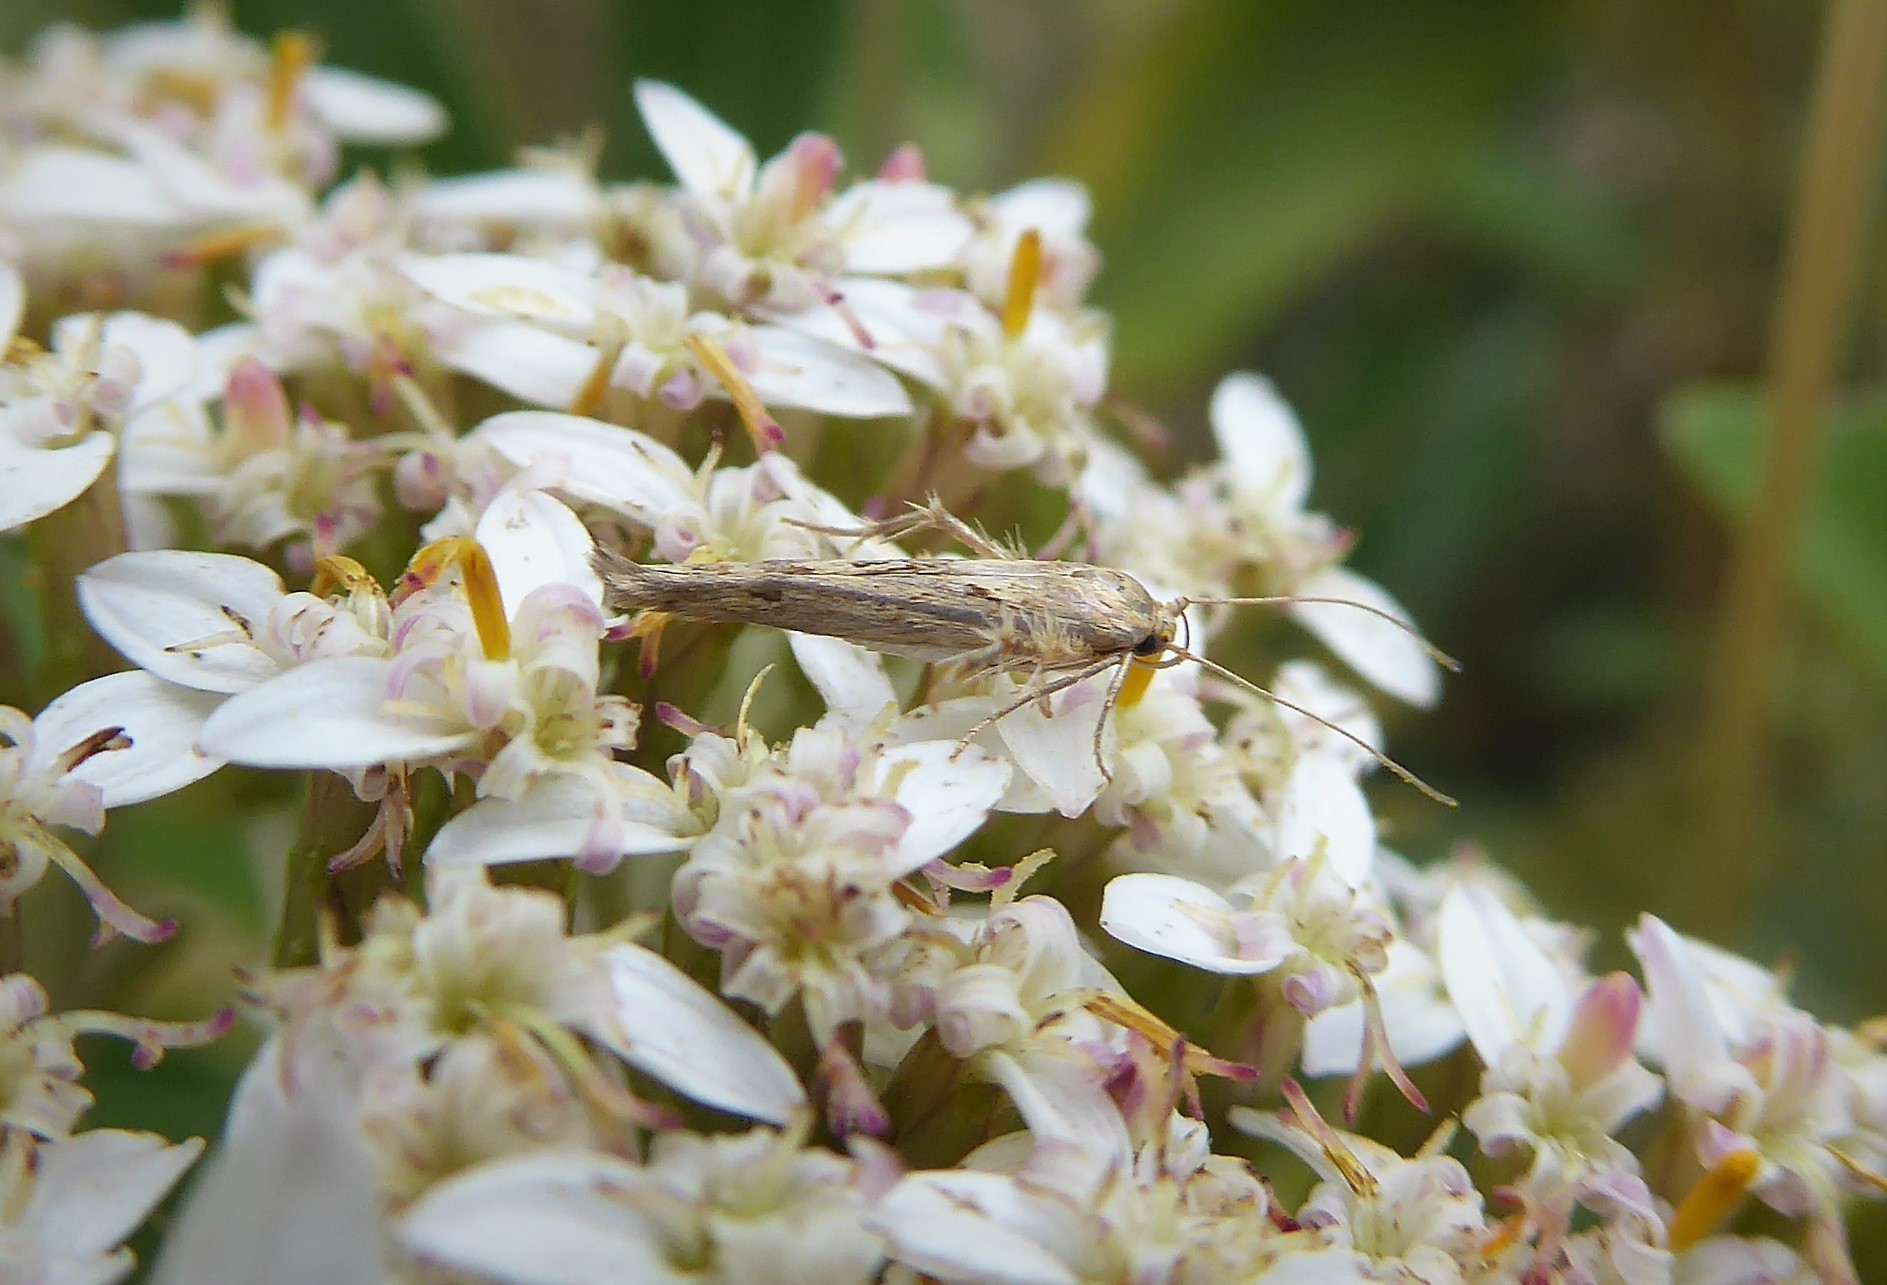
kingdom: Animalia
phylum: Arthropoda
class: Insecta
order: Lepidoptera
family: Stathmopodidae
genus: Stathmopoda
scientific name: Stathmopoda plumbiflua
